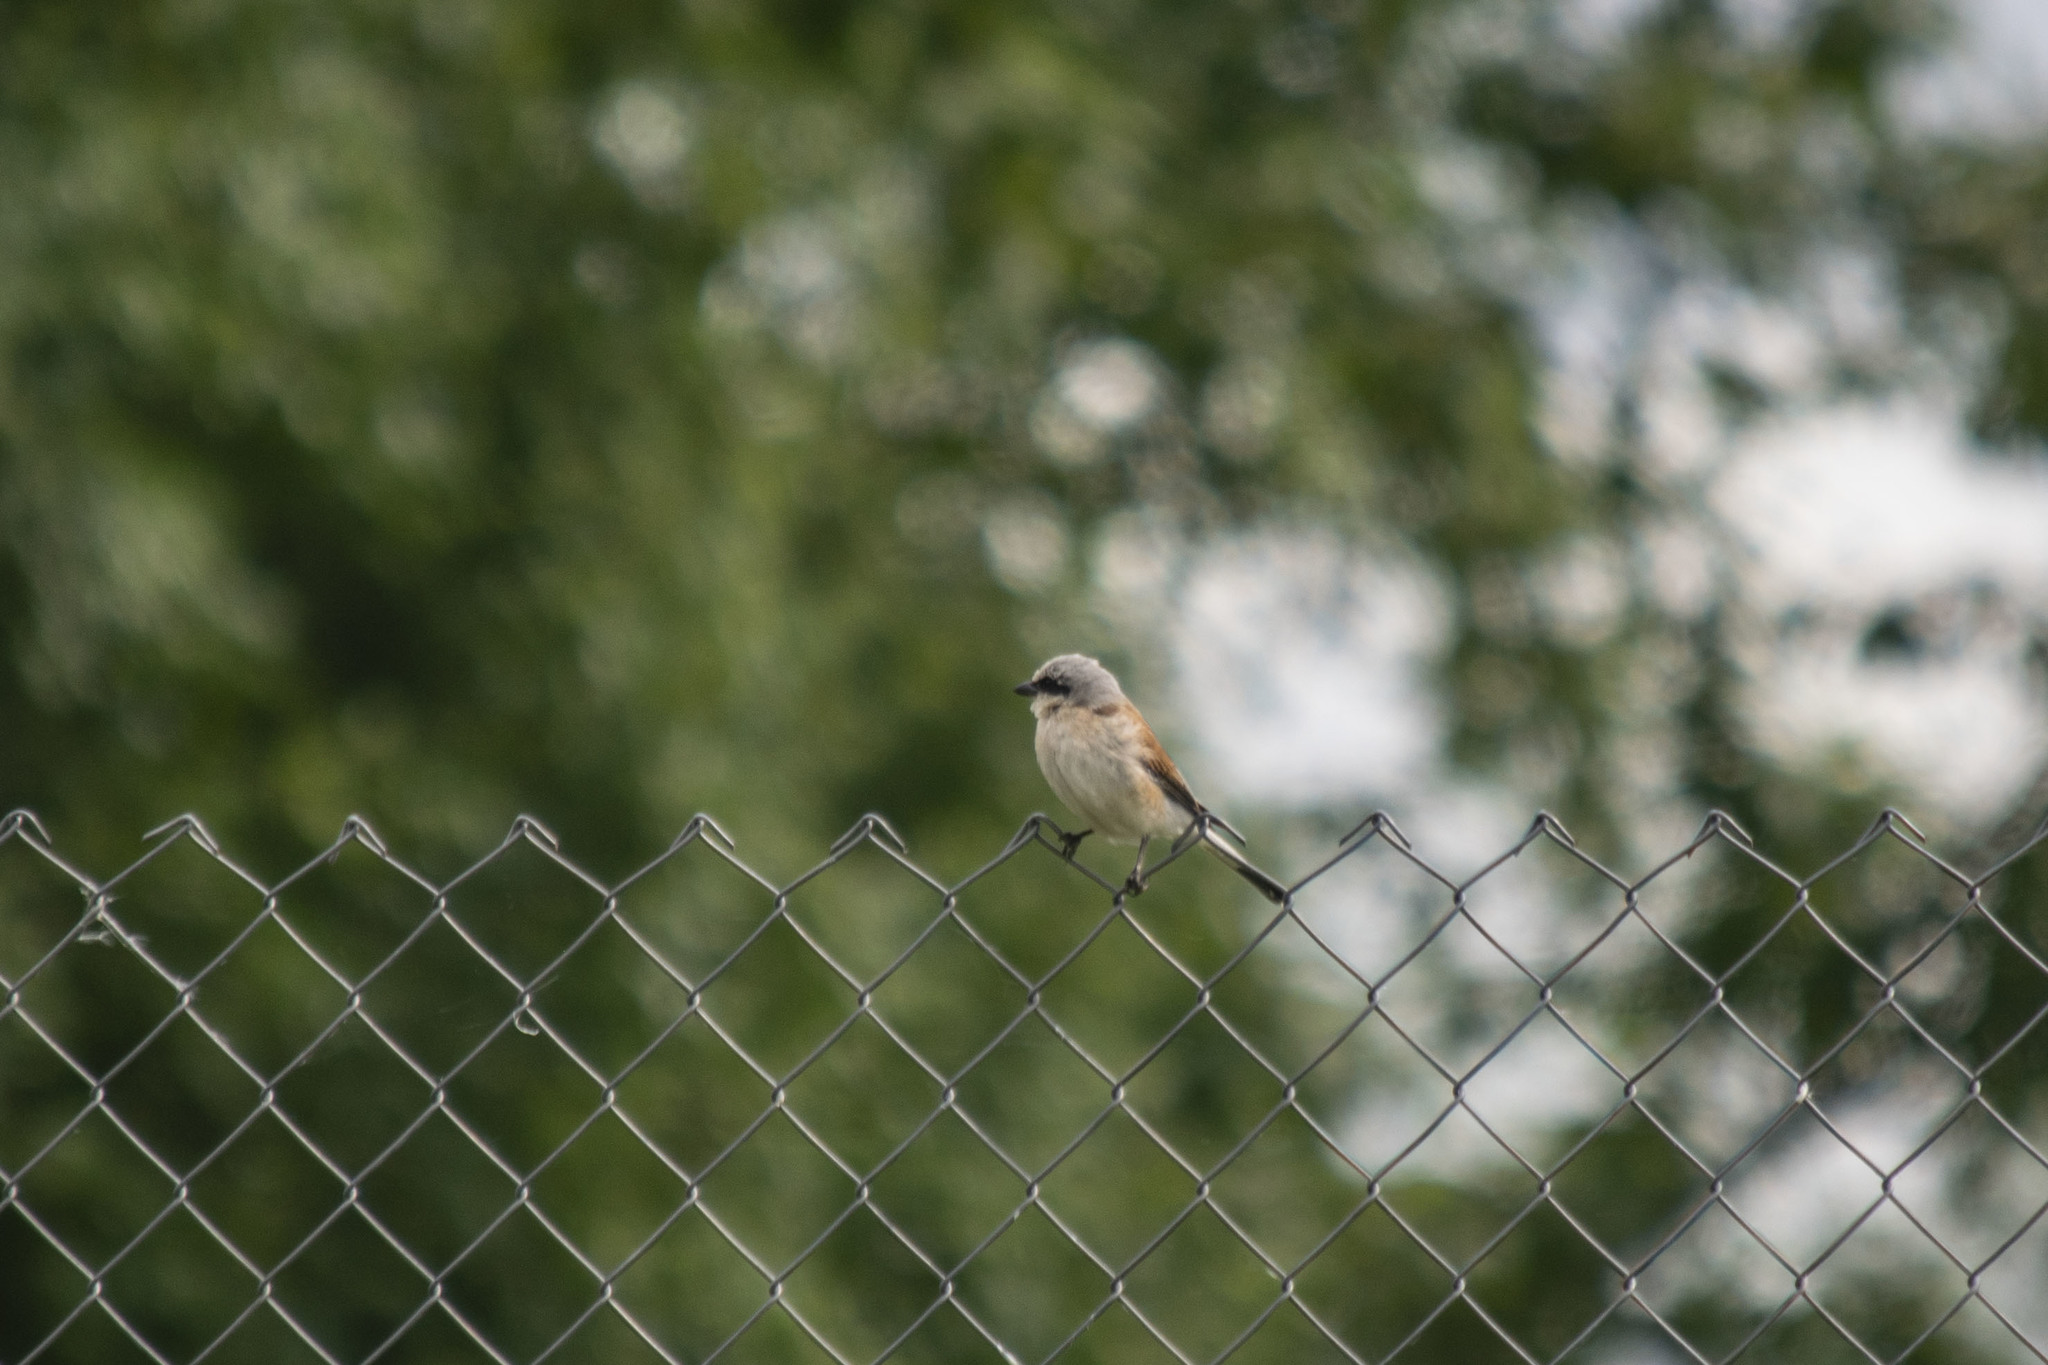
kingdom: Animalia
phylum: Chordata
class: Aves
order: Passeriformes
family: Laniidae
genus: Lanius
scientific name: Lanius collurio
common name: Red-backed shrike
